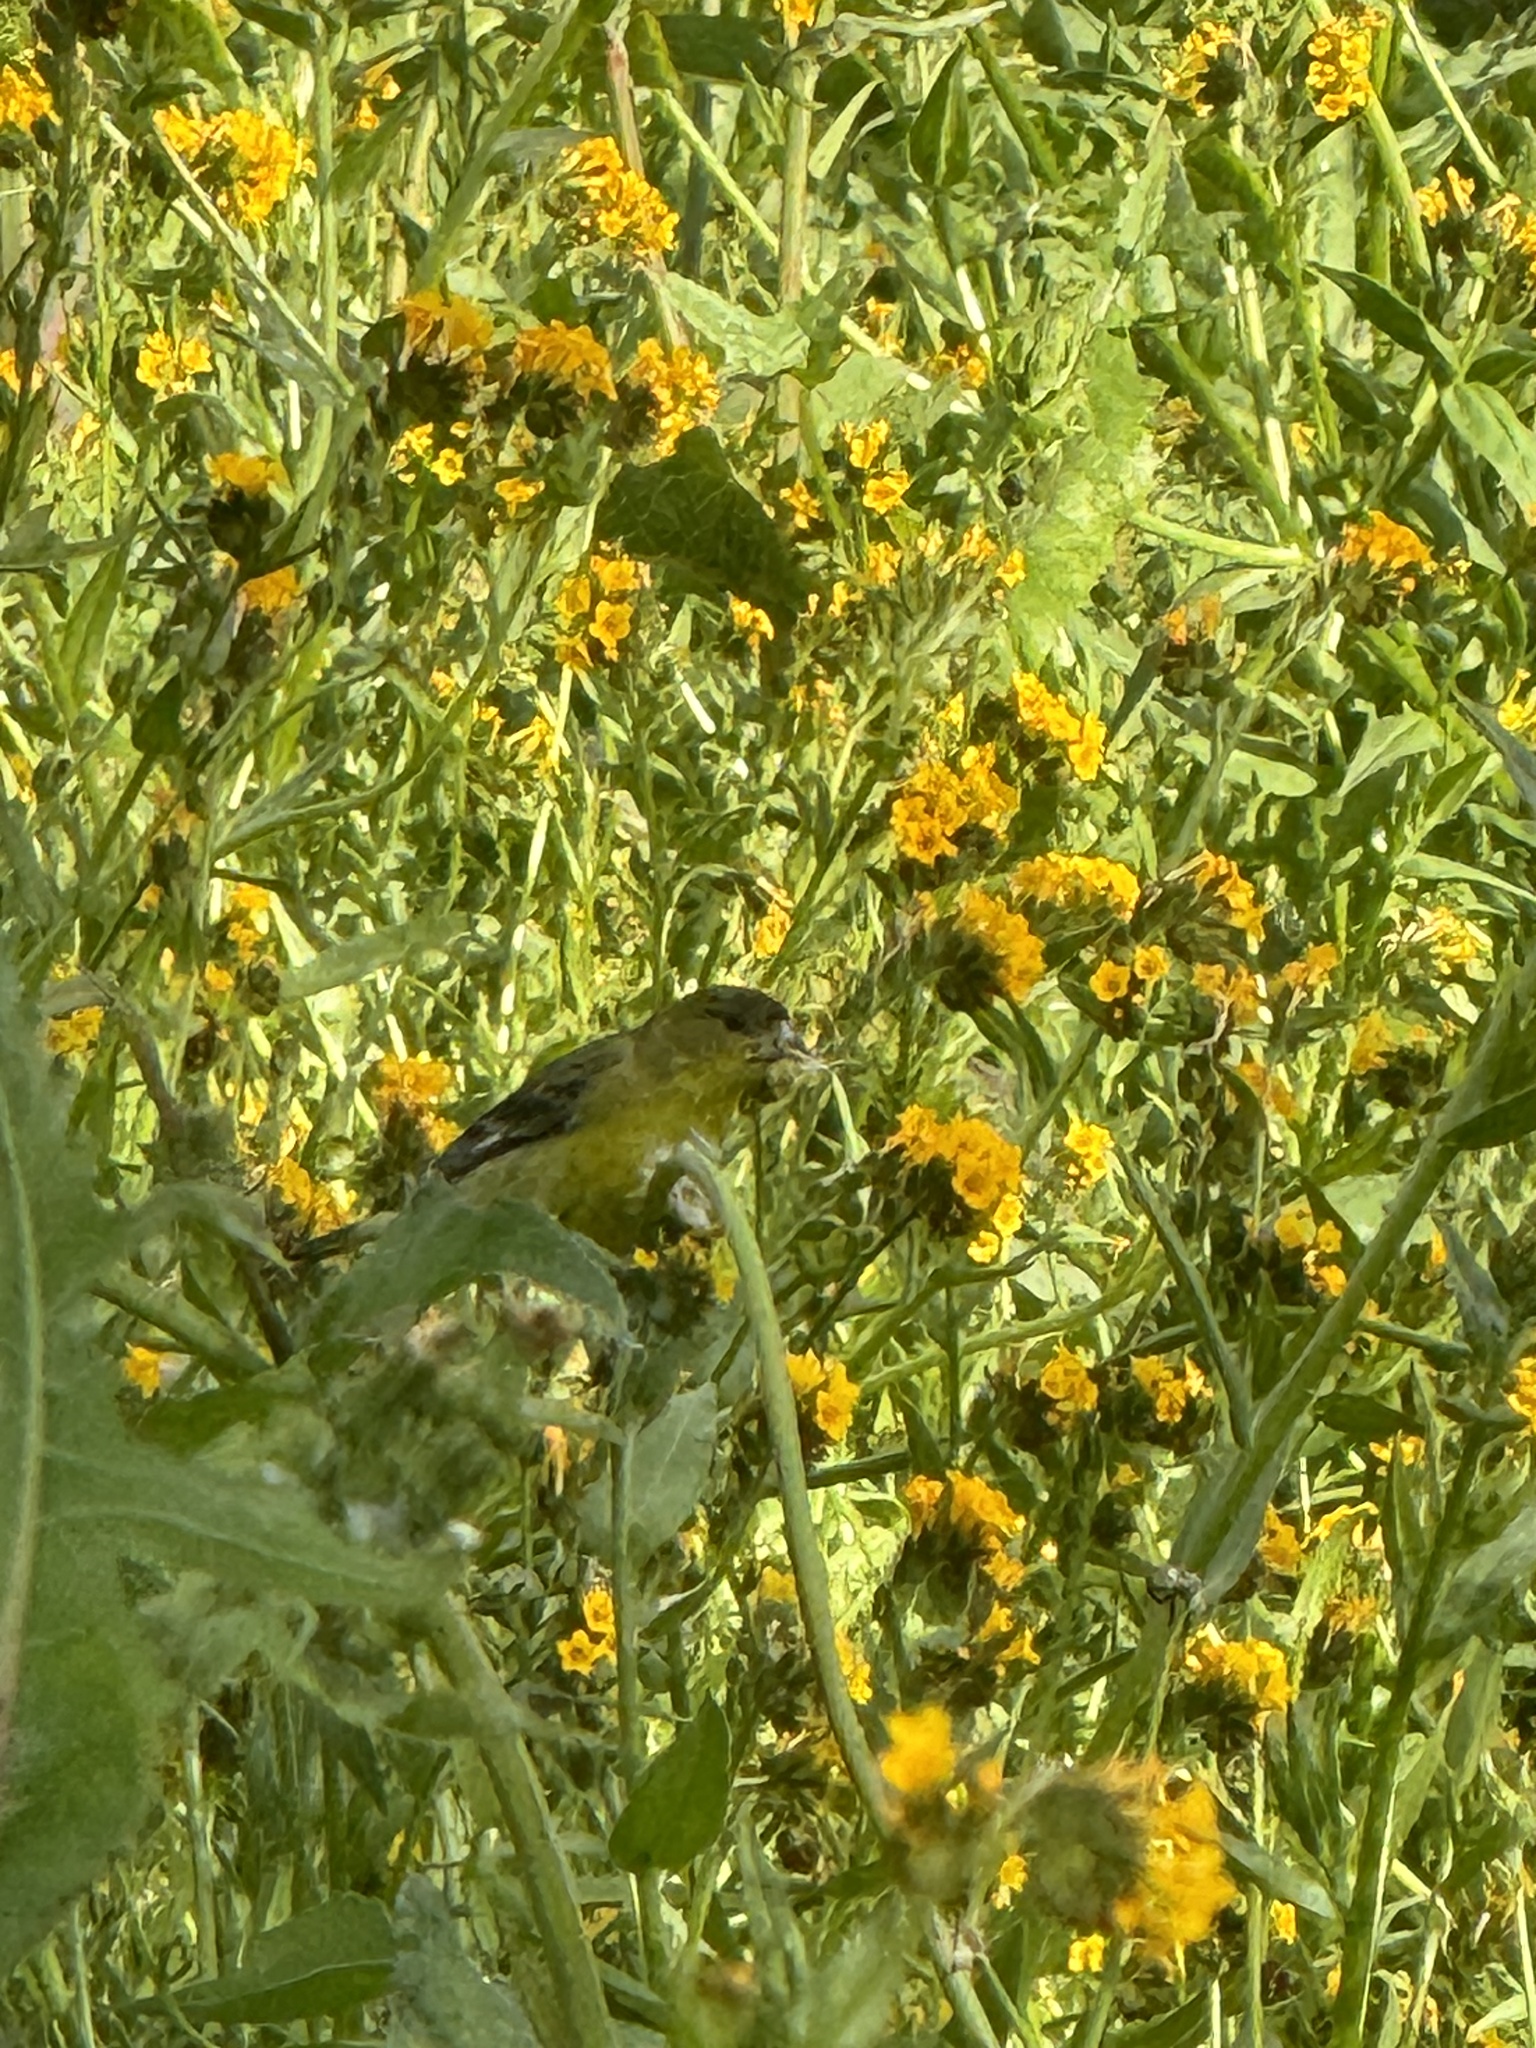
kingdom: Animalia
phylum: Chordata
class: Aves
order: Passeriformes
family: Fringillidae
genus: Spinus
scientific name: Spinus psaltria
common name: Lesser goldfinch
